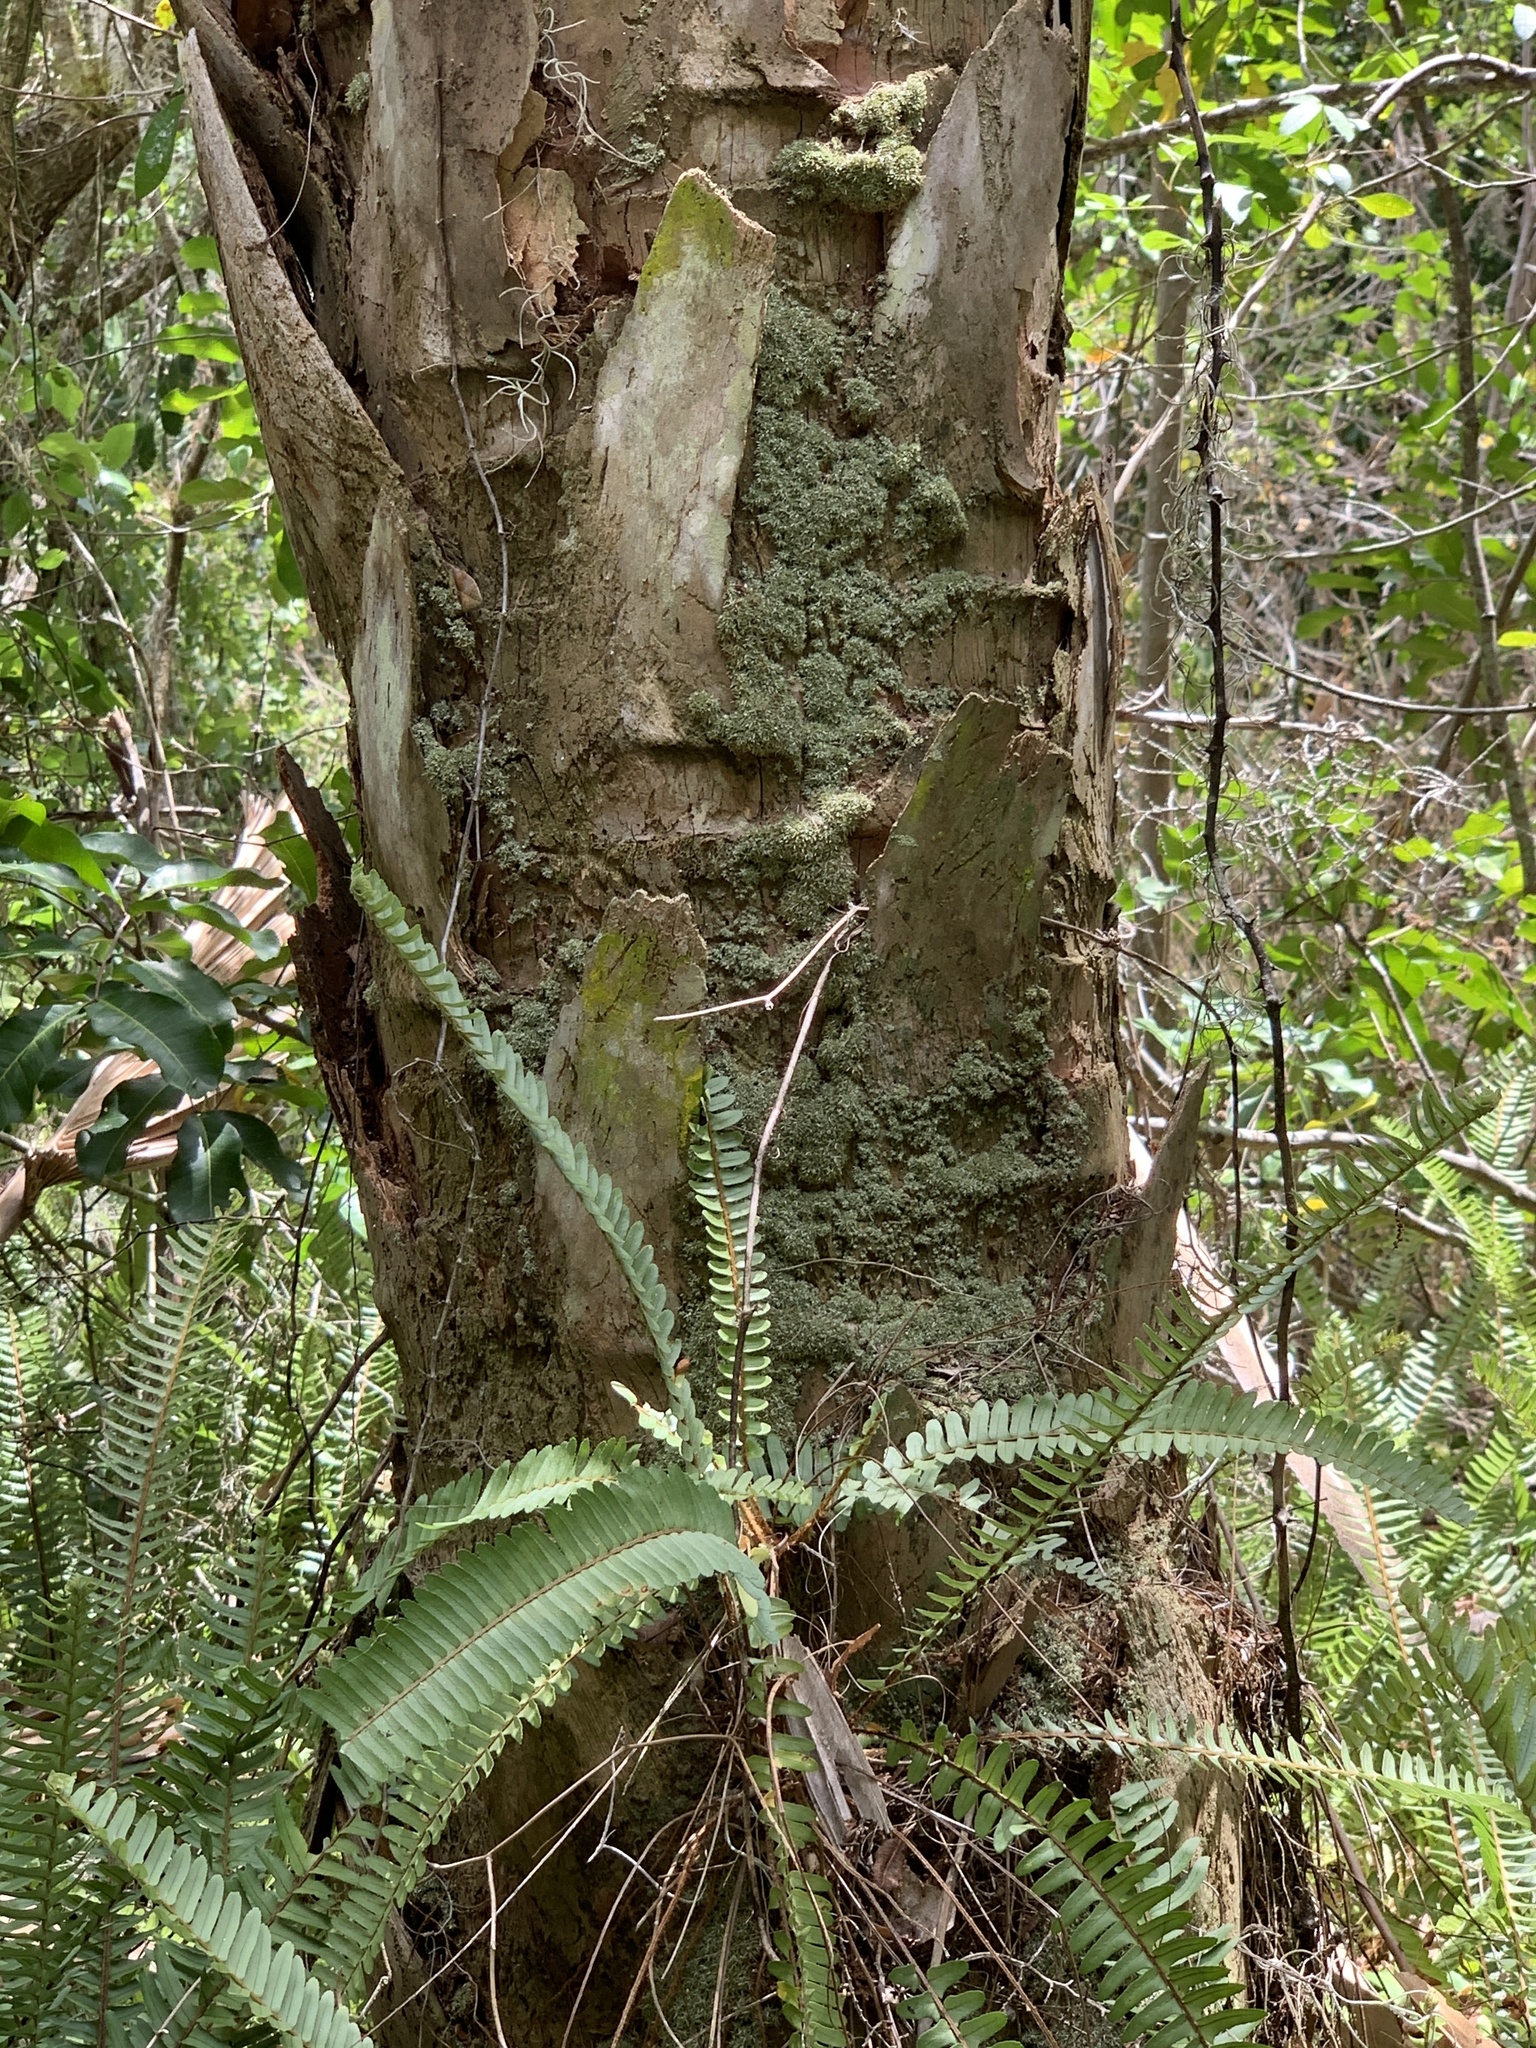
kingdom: Plantae
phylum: Tracheophyta
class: Polypodiopsida
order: Polypodiales
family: Nephrolepidaceae
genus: Nephrolepis
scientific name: Nephrolepis cordifolia
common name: Narrow swordfern
